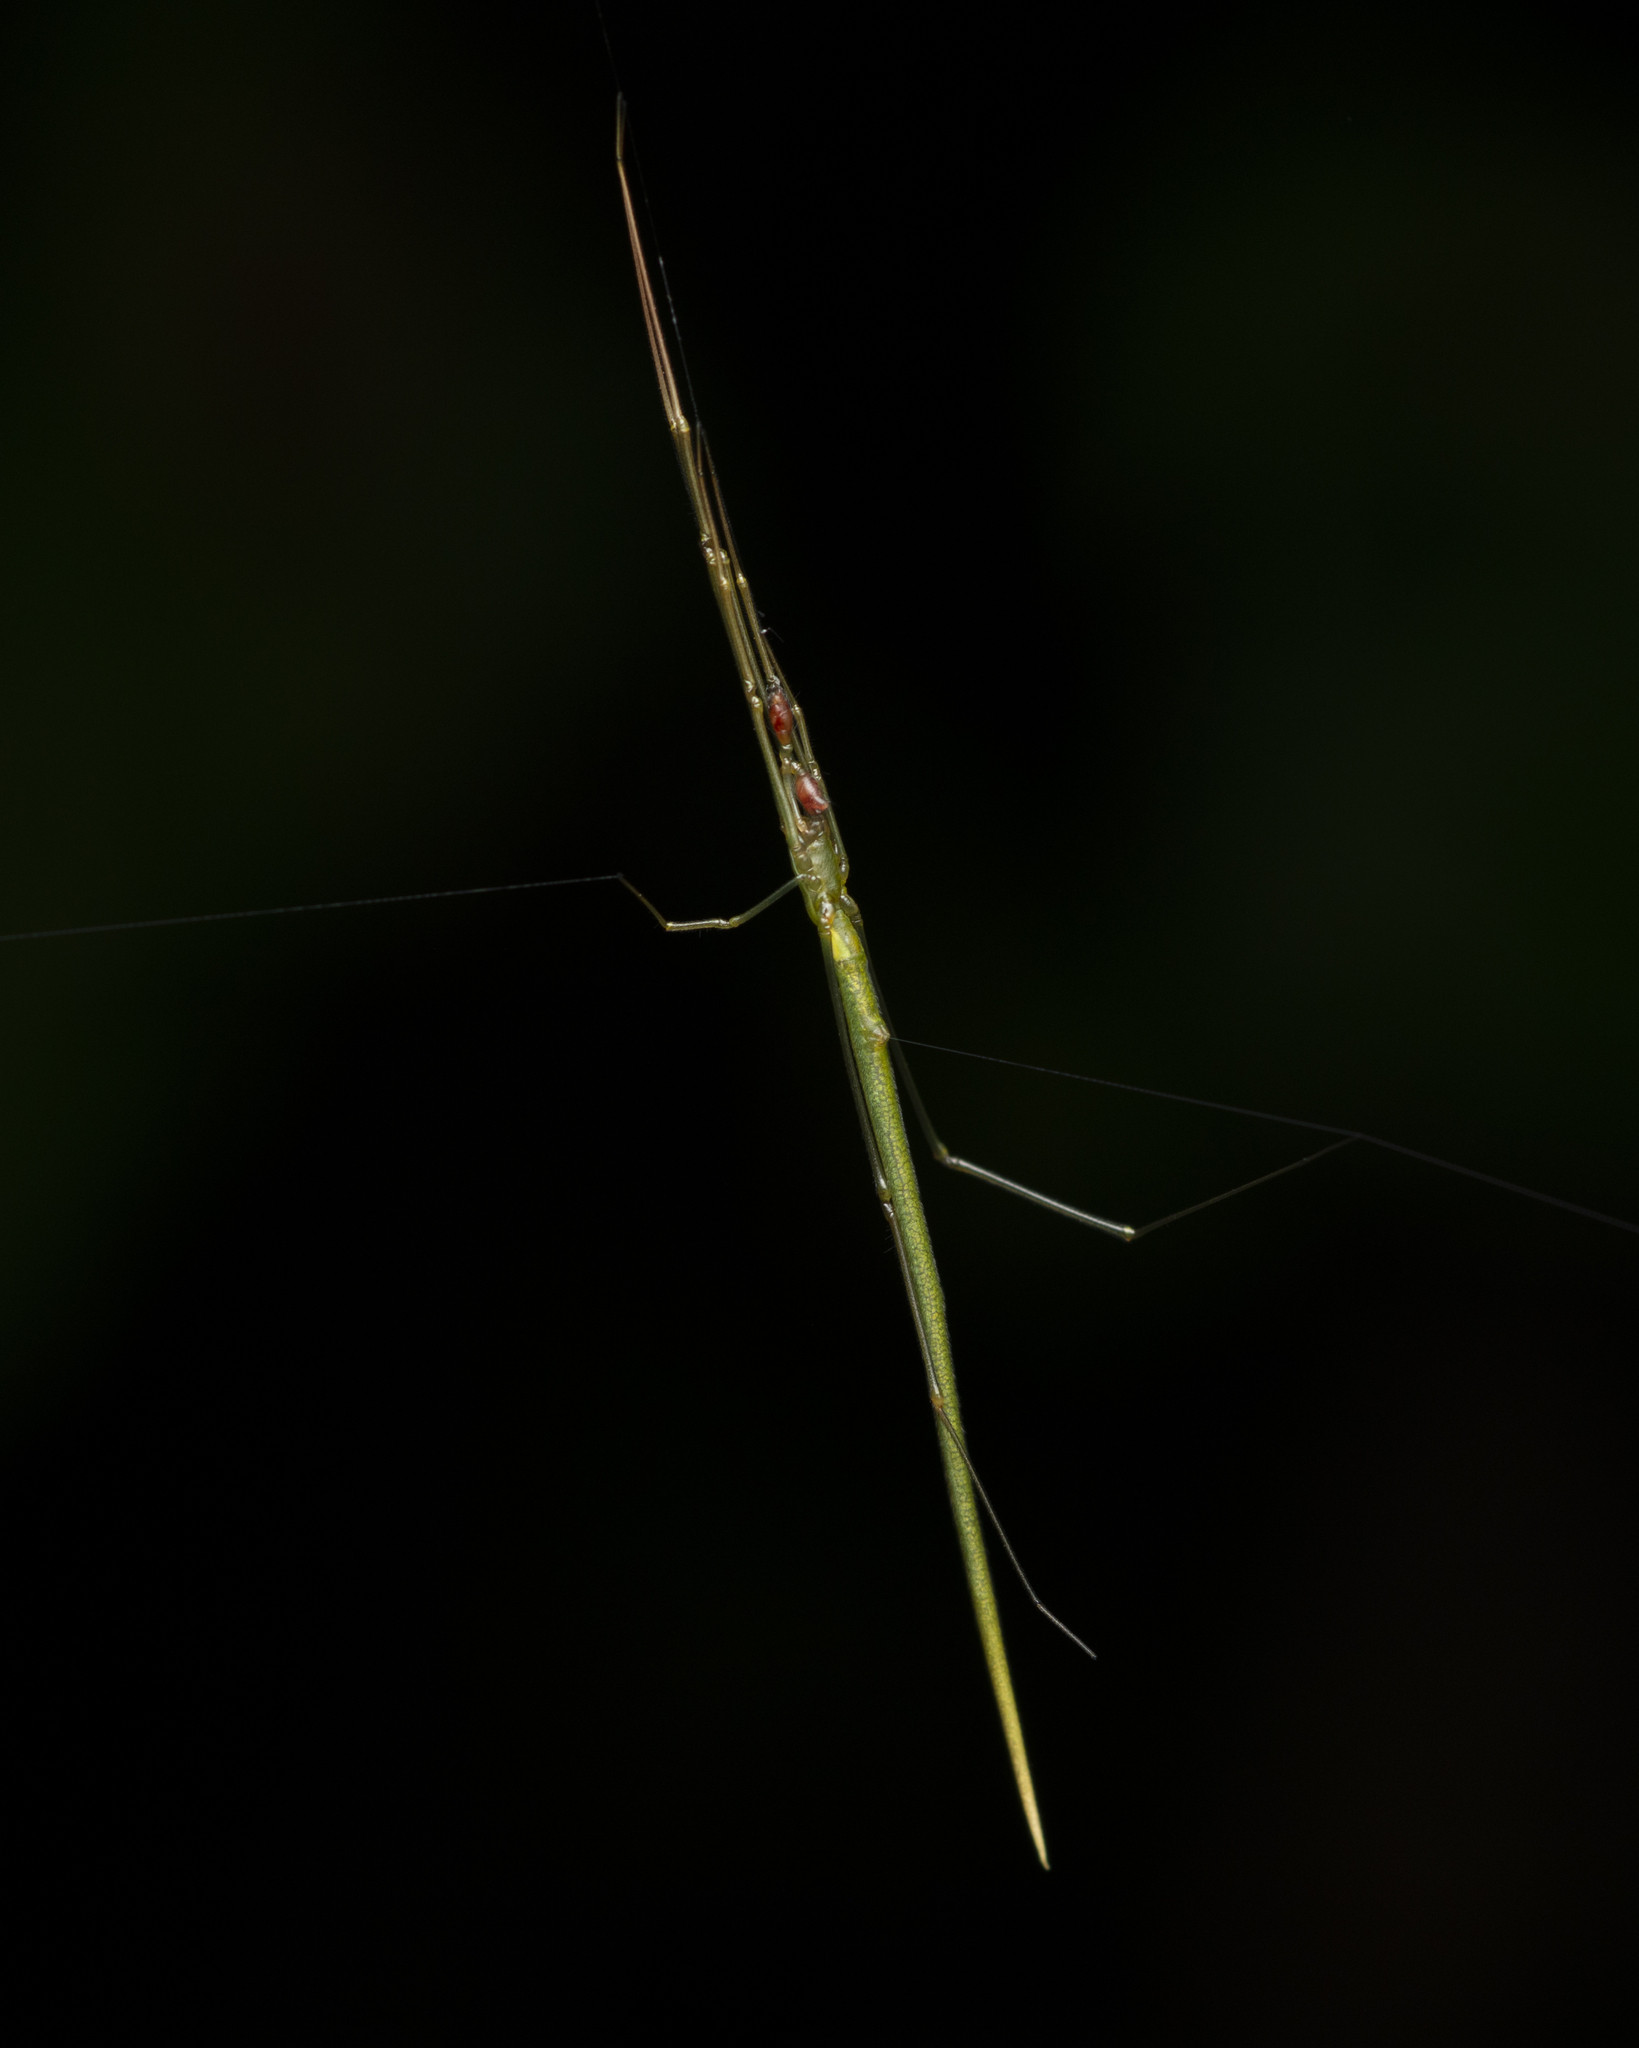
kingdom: Animalia
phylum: Arthropoda
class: Arachnida
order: Araneae
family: Theridiidae
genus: Ariamnes
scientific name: Ariamnes cylindrogaster
